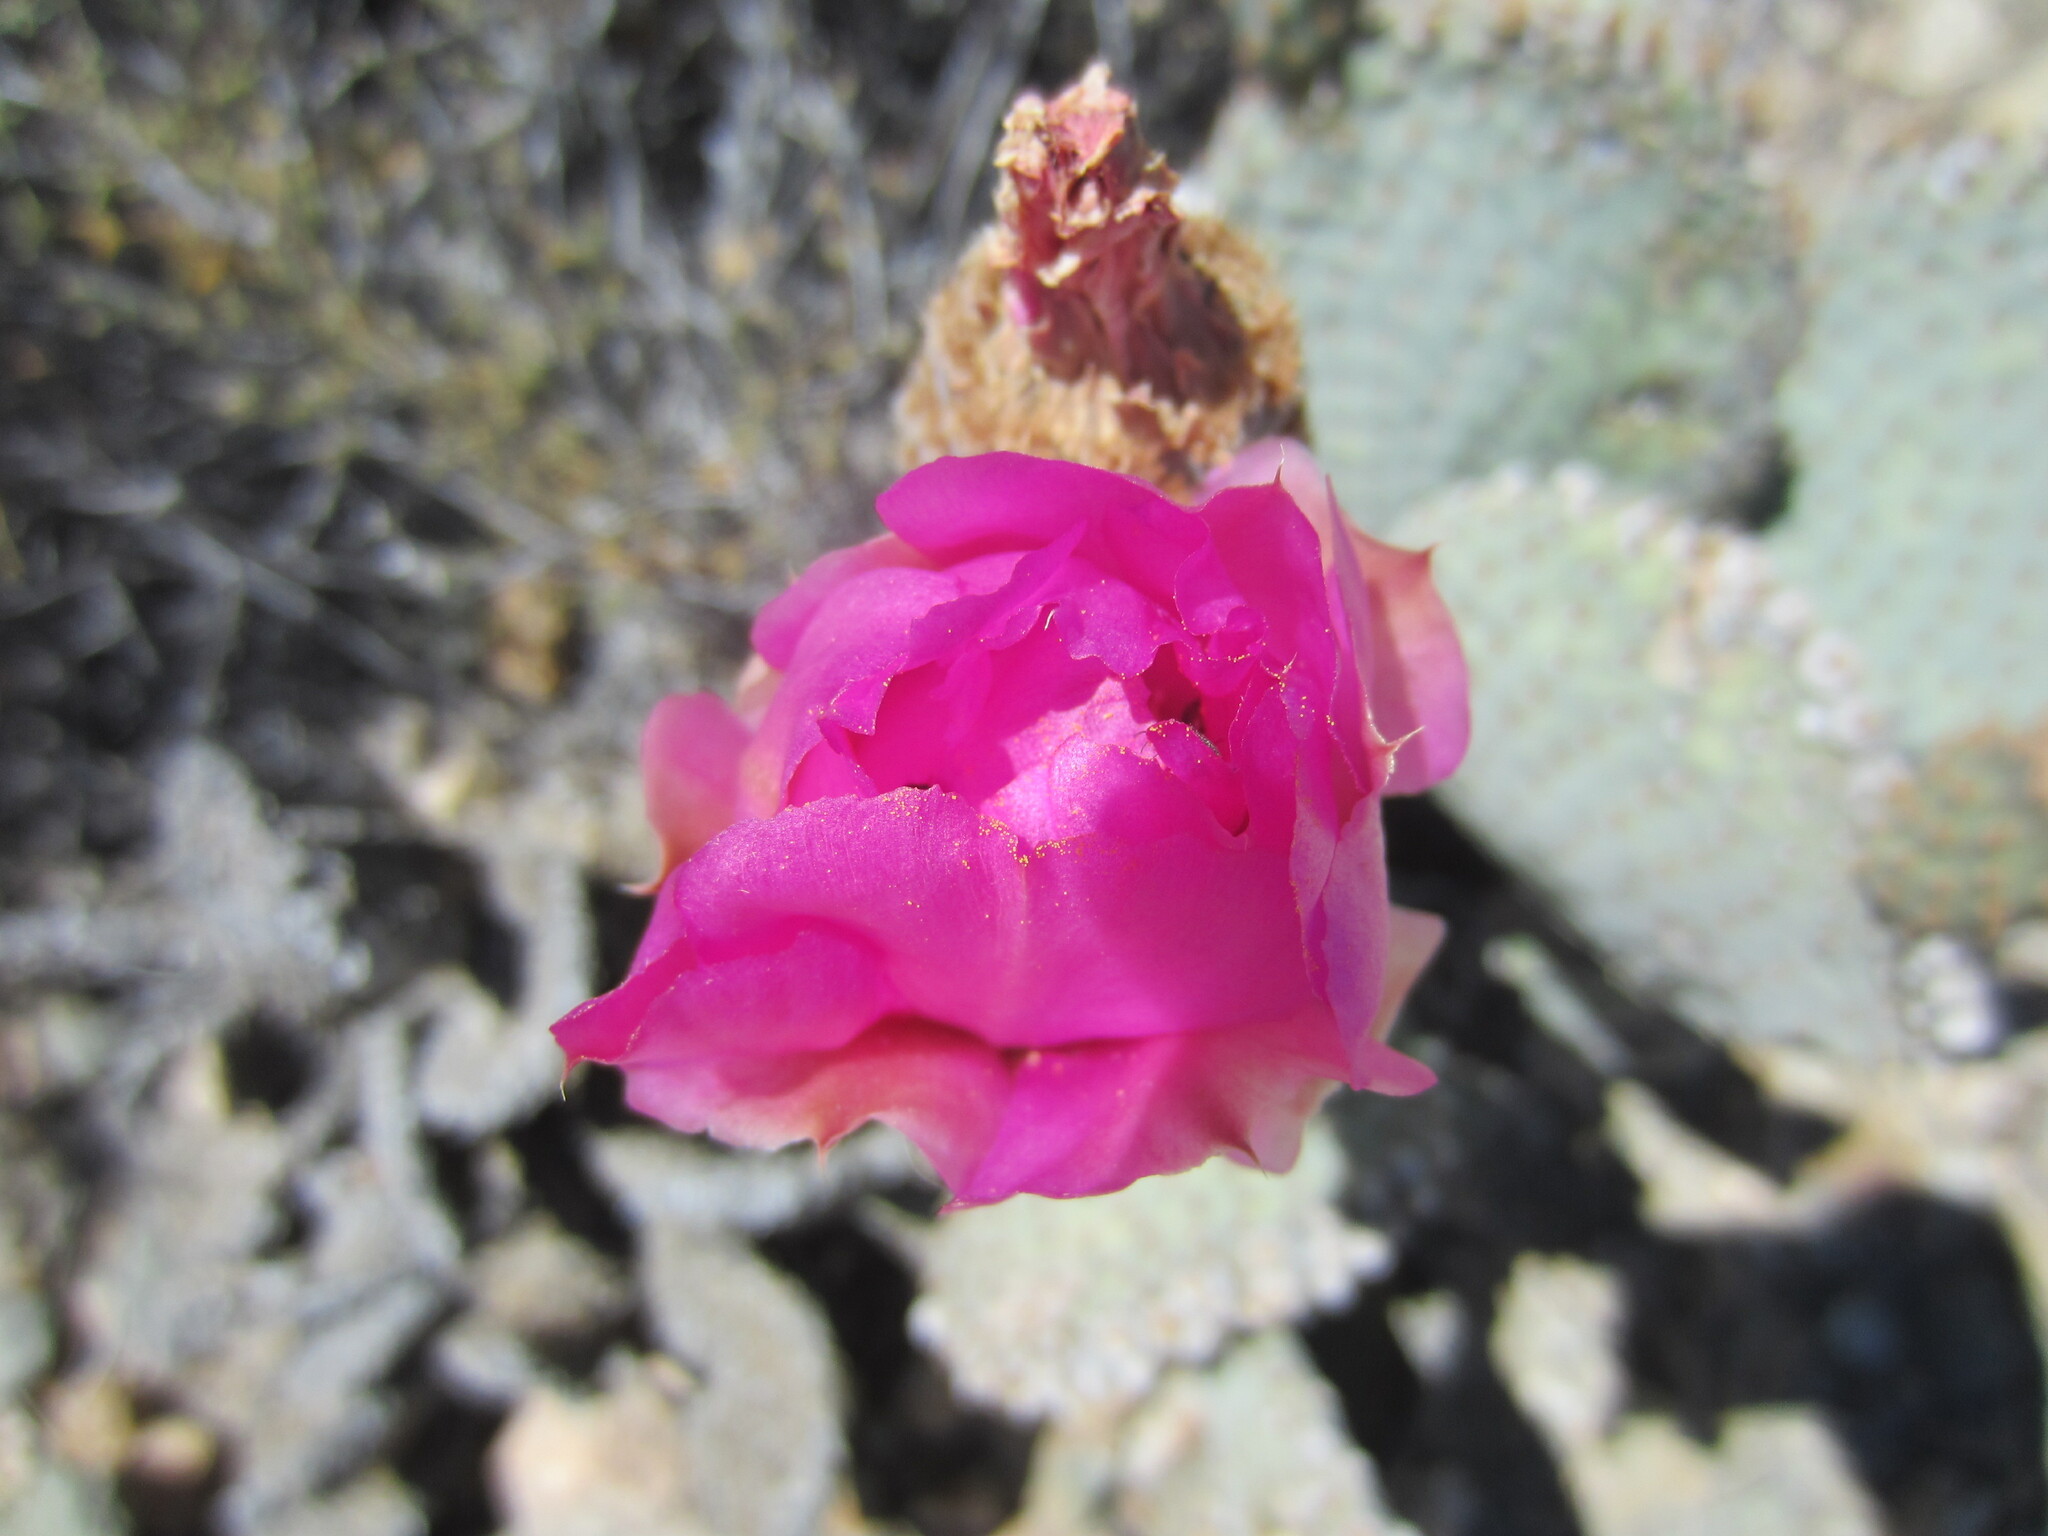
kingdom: Plantae
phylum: Tracheophyta
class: Magnoliopsida
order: Caryophyllales
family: Cactaceae
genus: Opuntia
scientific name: Opuntia basilaris
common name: Beavertail prickly-pear
